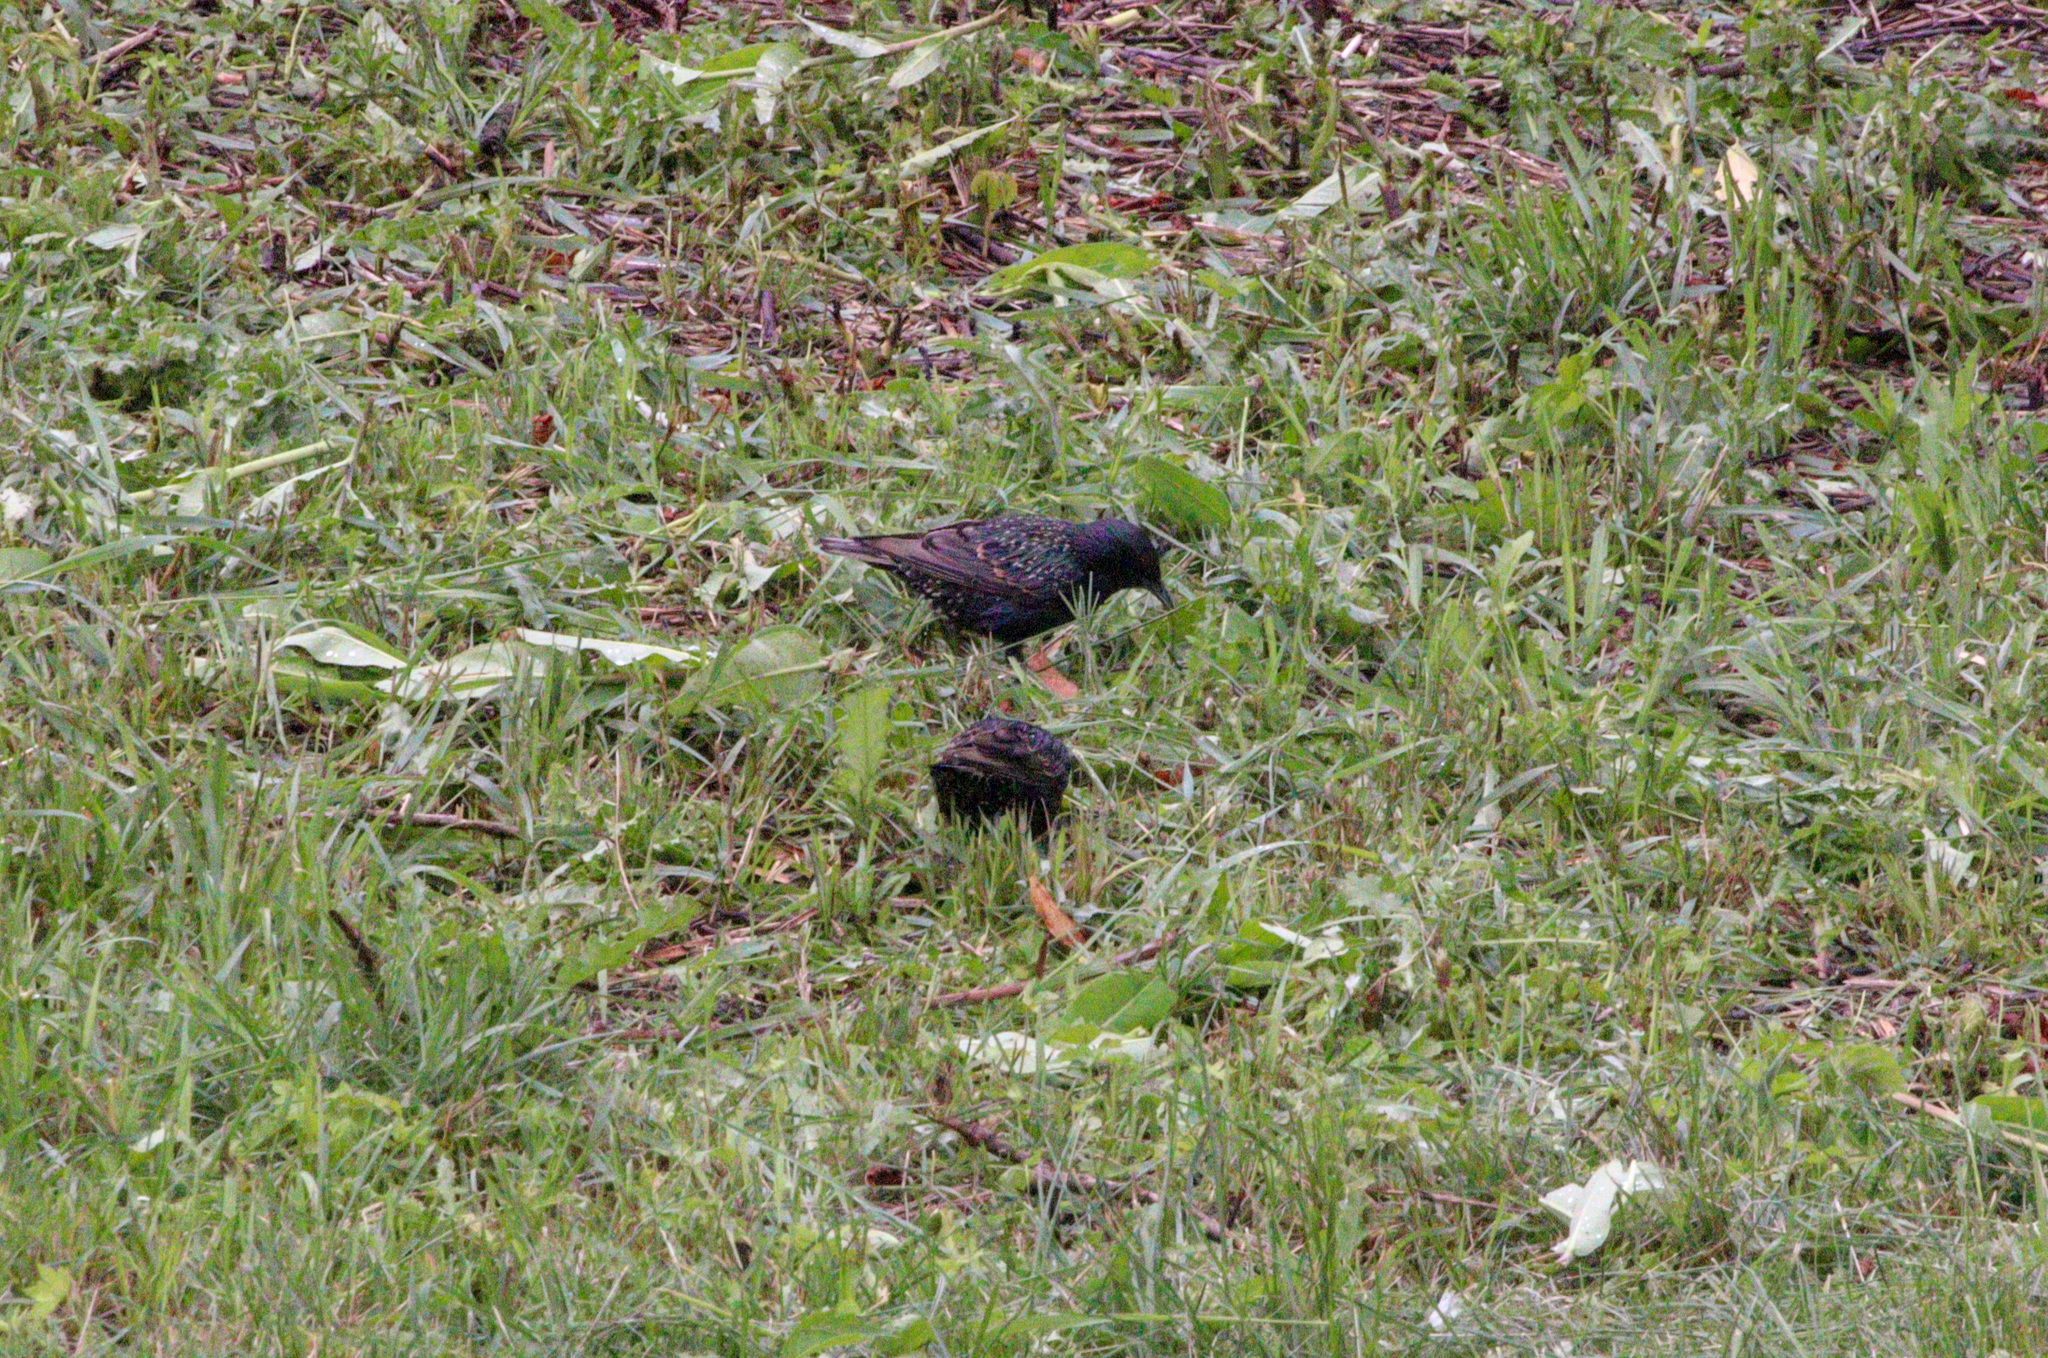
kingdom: Animalia
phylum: Chordata
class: Aves
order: Passeriformes
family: Sturnidae
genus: Sturnus
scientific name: Sturnus vulgaris
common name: Common starling
